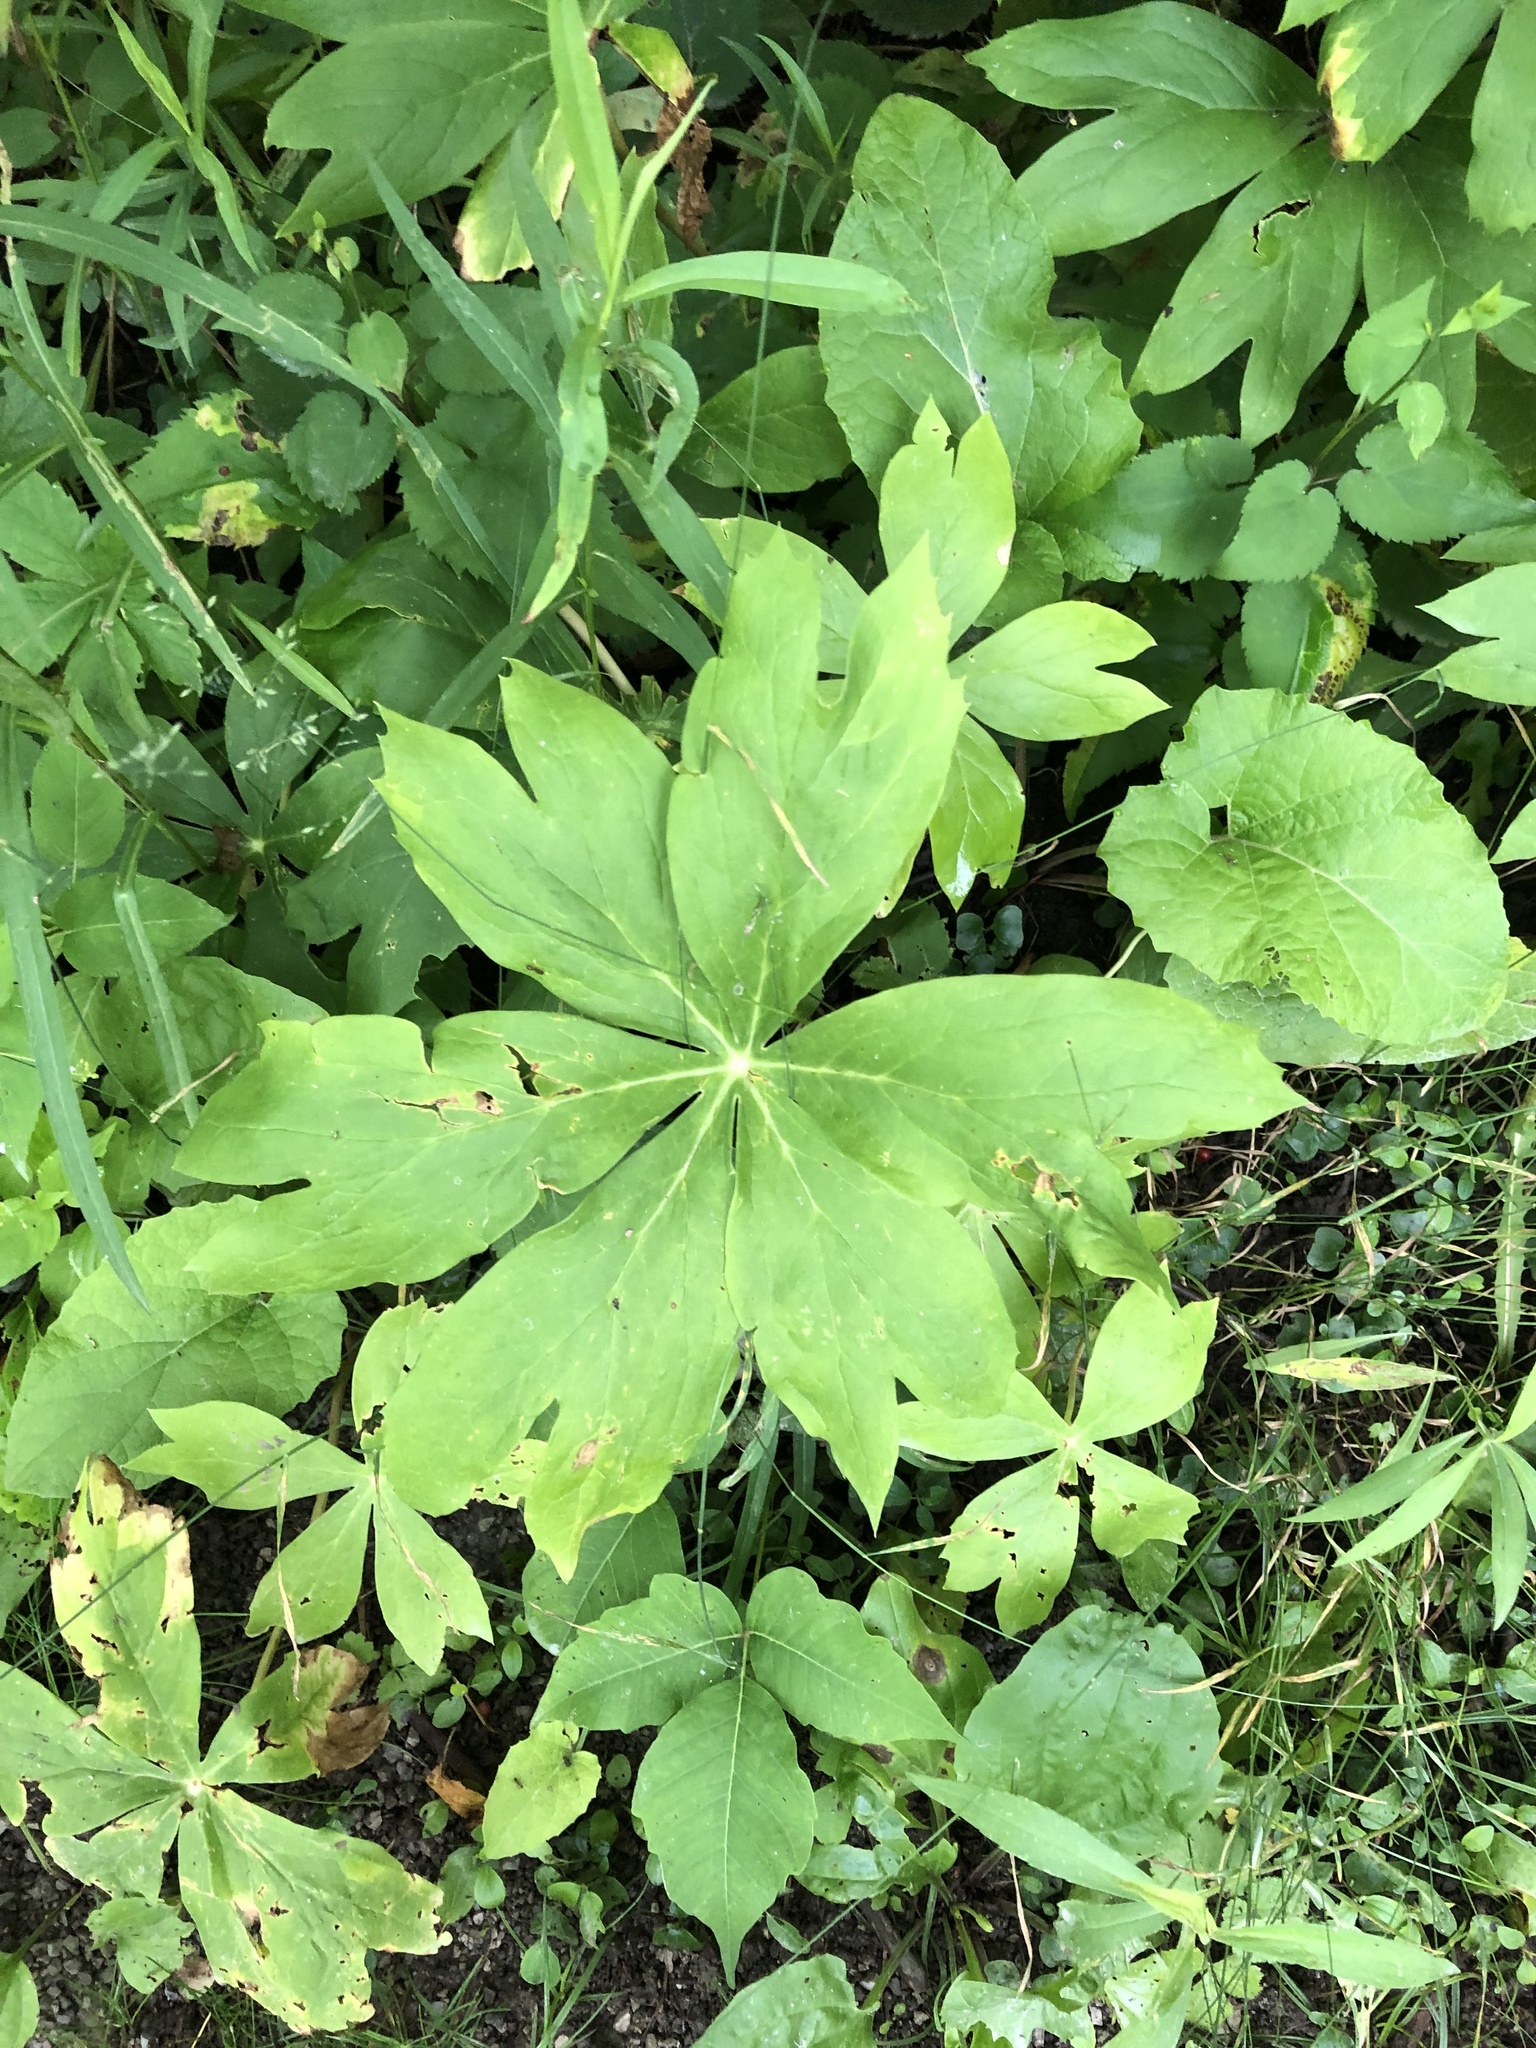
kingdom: Plantae
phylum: Tracheophyta
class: Magnoliopsida
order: Ranunculales
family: Berberidaceae
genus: Podophyllum
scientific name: Podophyllum peltatum
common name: Wild mandrake
